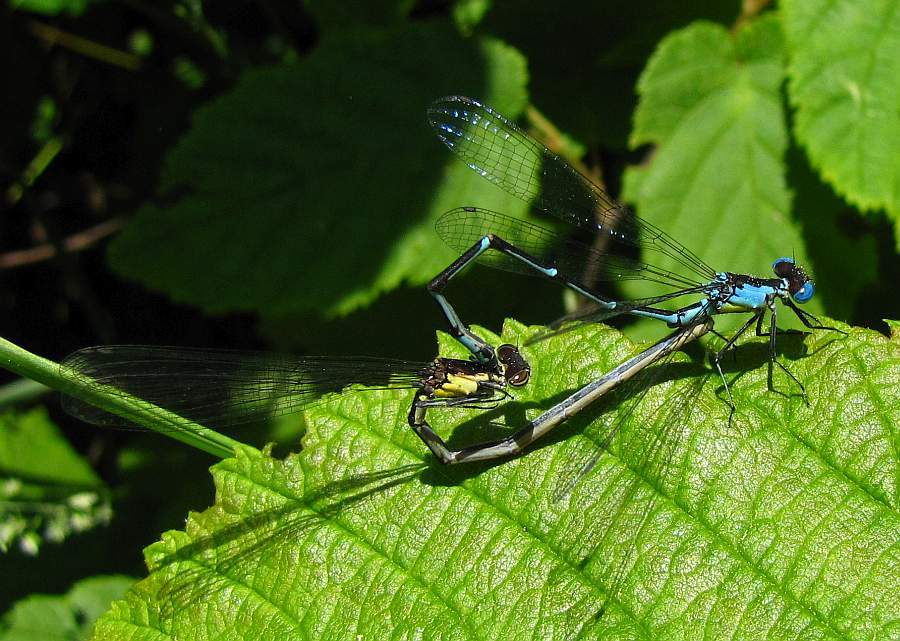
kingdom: Animalia
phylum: Arthropoda
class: Insecta
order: Odonata
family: Coenagrionidae
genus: Chromagrion
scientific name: Chromagrion conditum
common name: Aurora damsel
